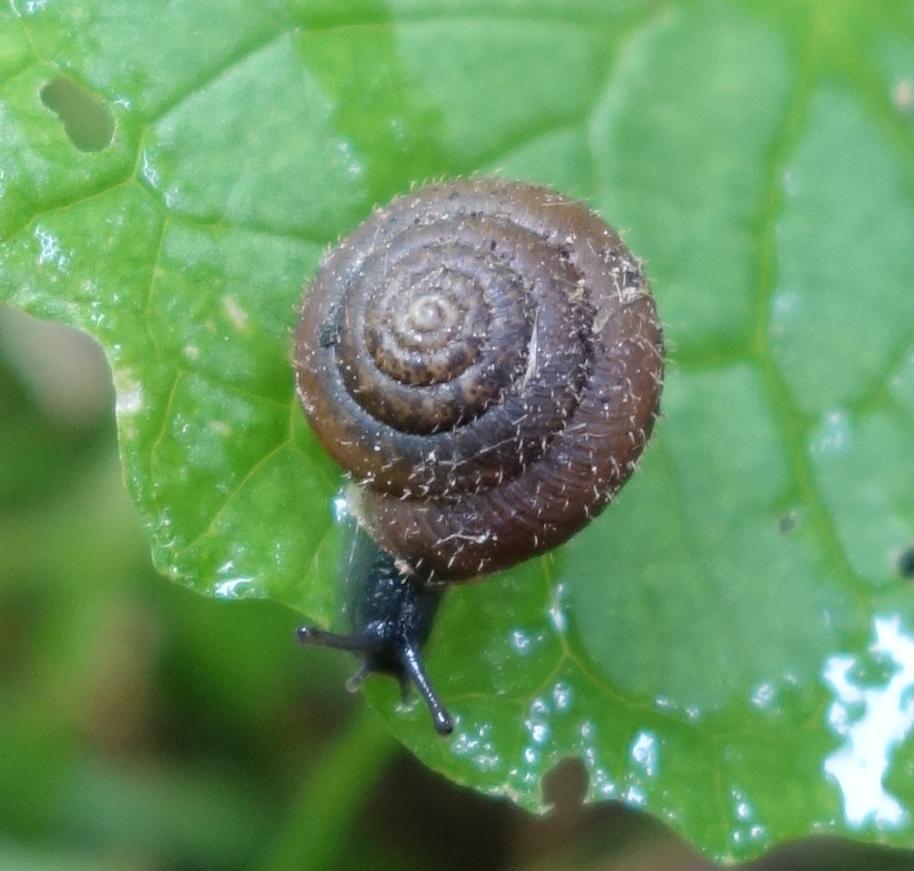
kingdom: Animalia
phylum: Mollusca
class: Gastropoda
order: Stylommatophora
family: Hygromiidae
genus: Trochulus
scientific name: Trochulus hispidus
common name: Hairy snail
